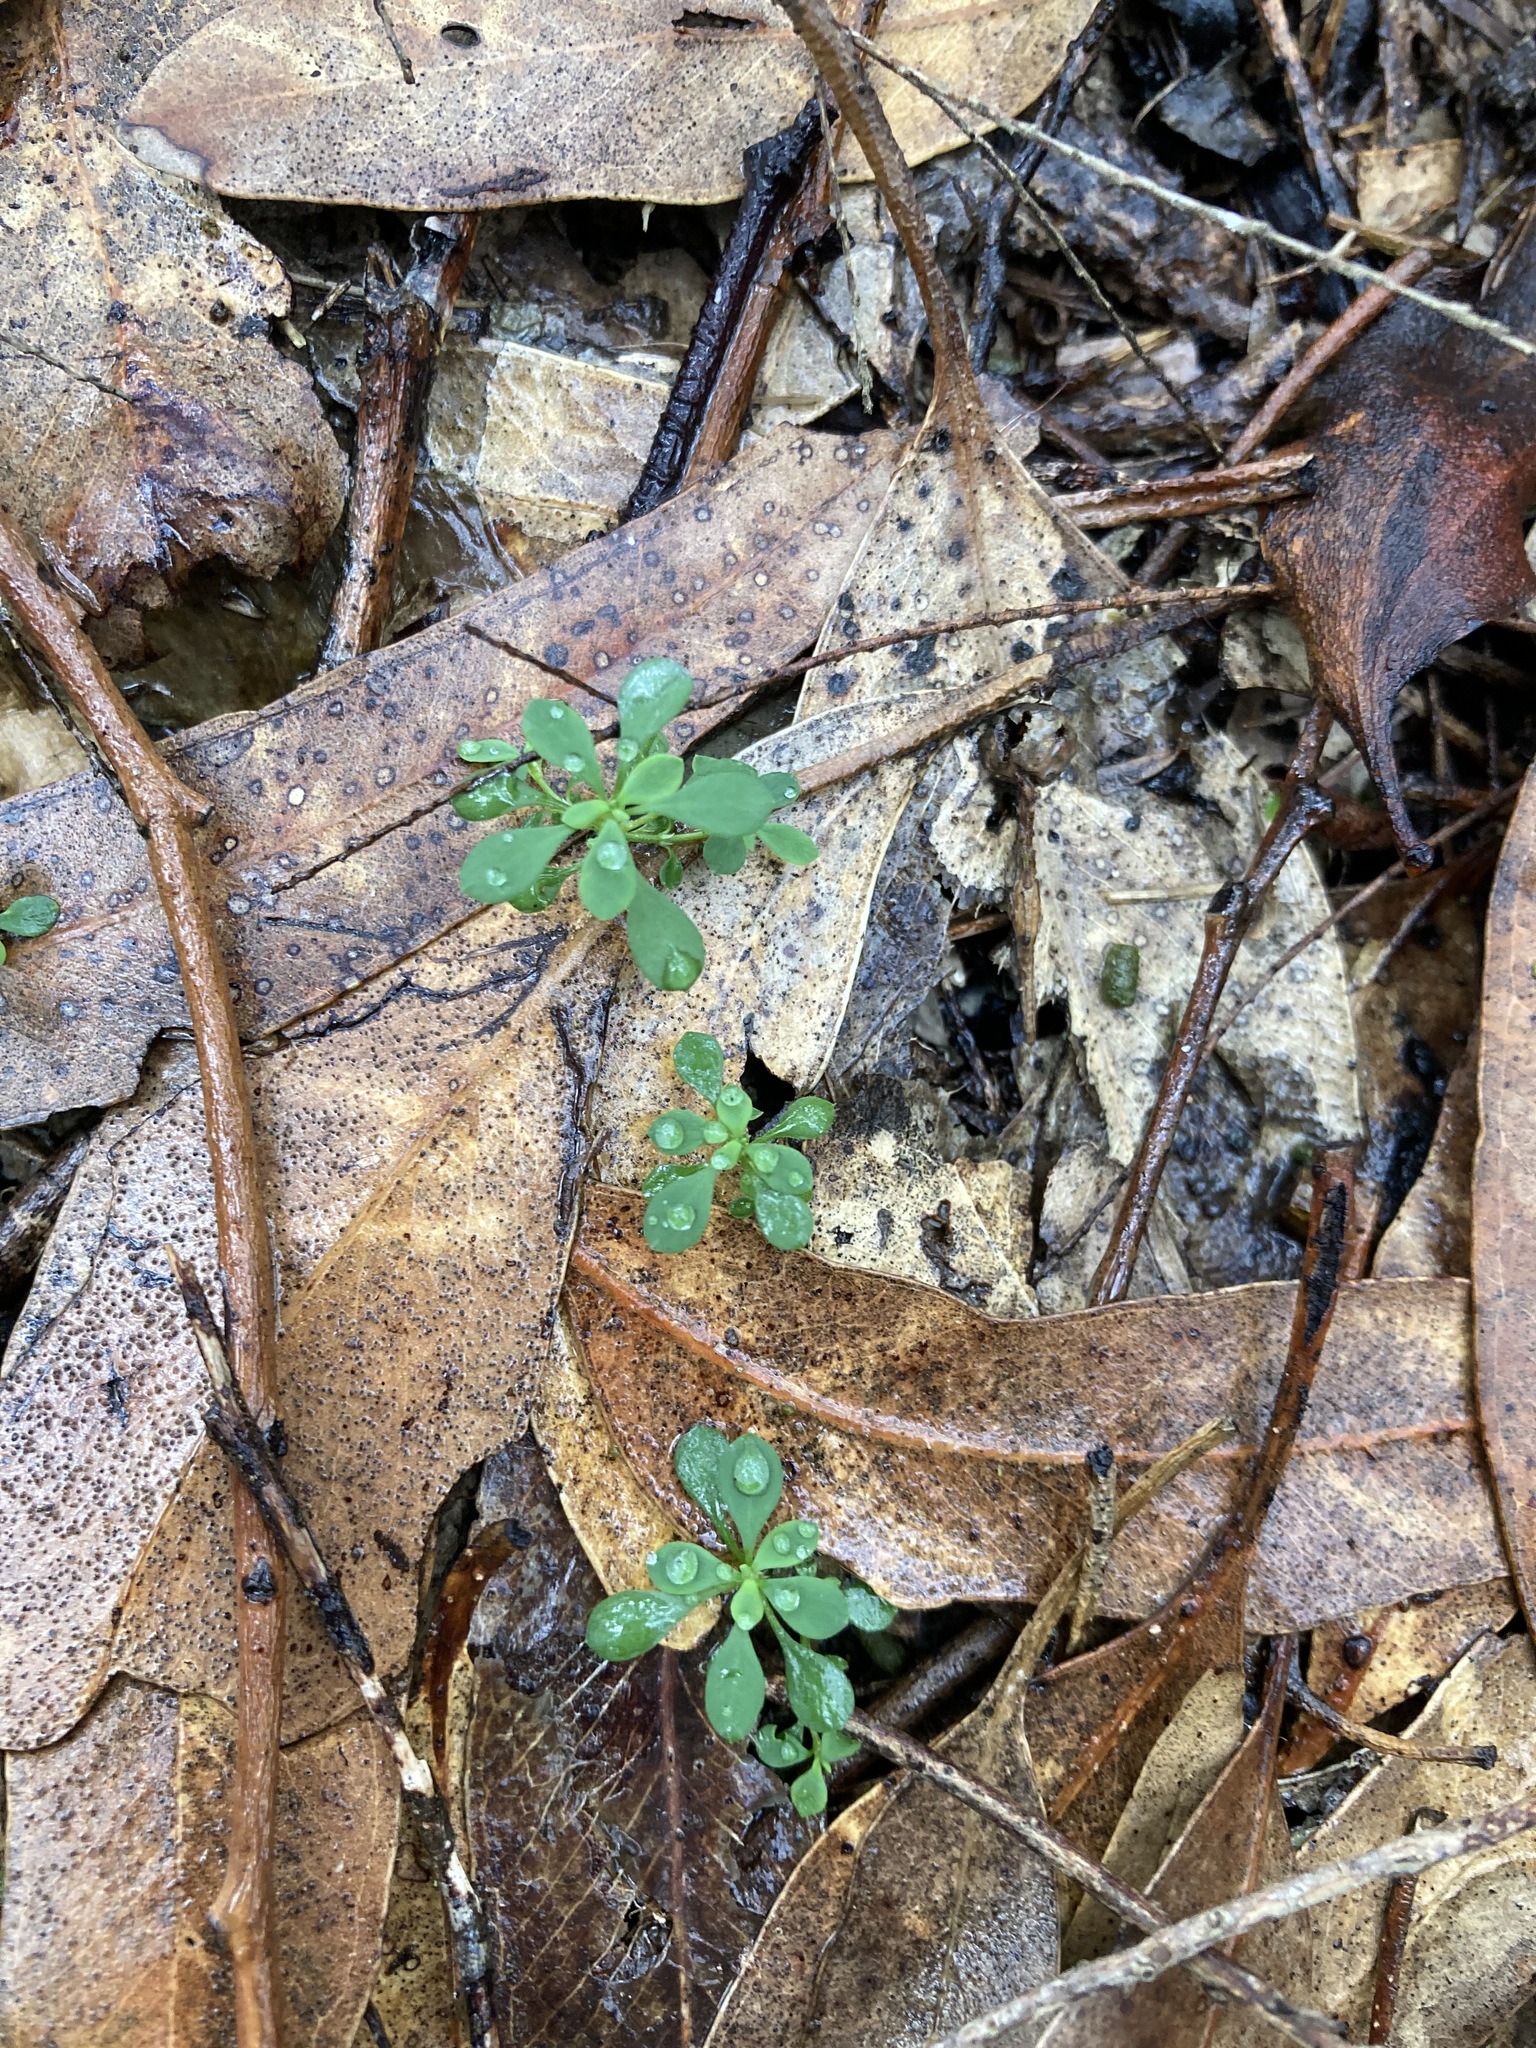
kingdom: Plantae
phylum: Tracheophyta
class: Magnoliopsida
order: Malpighiales
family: Phyllanthaceae
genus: Poranthera
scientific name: Poranthera microphylla
